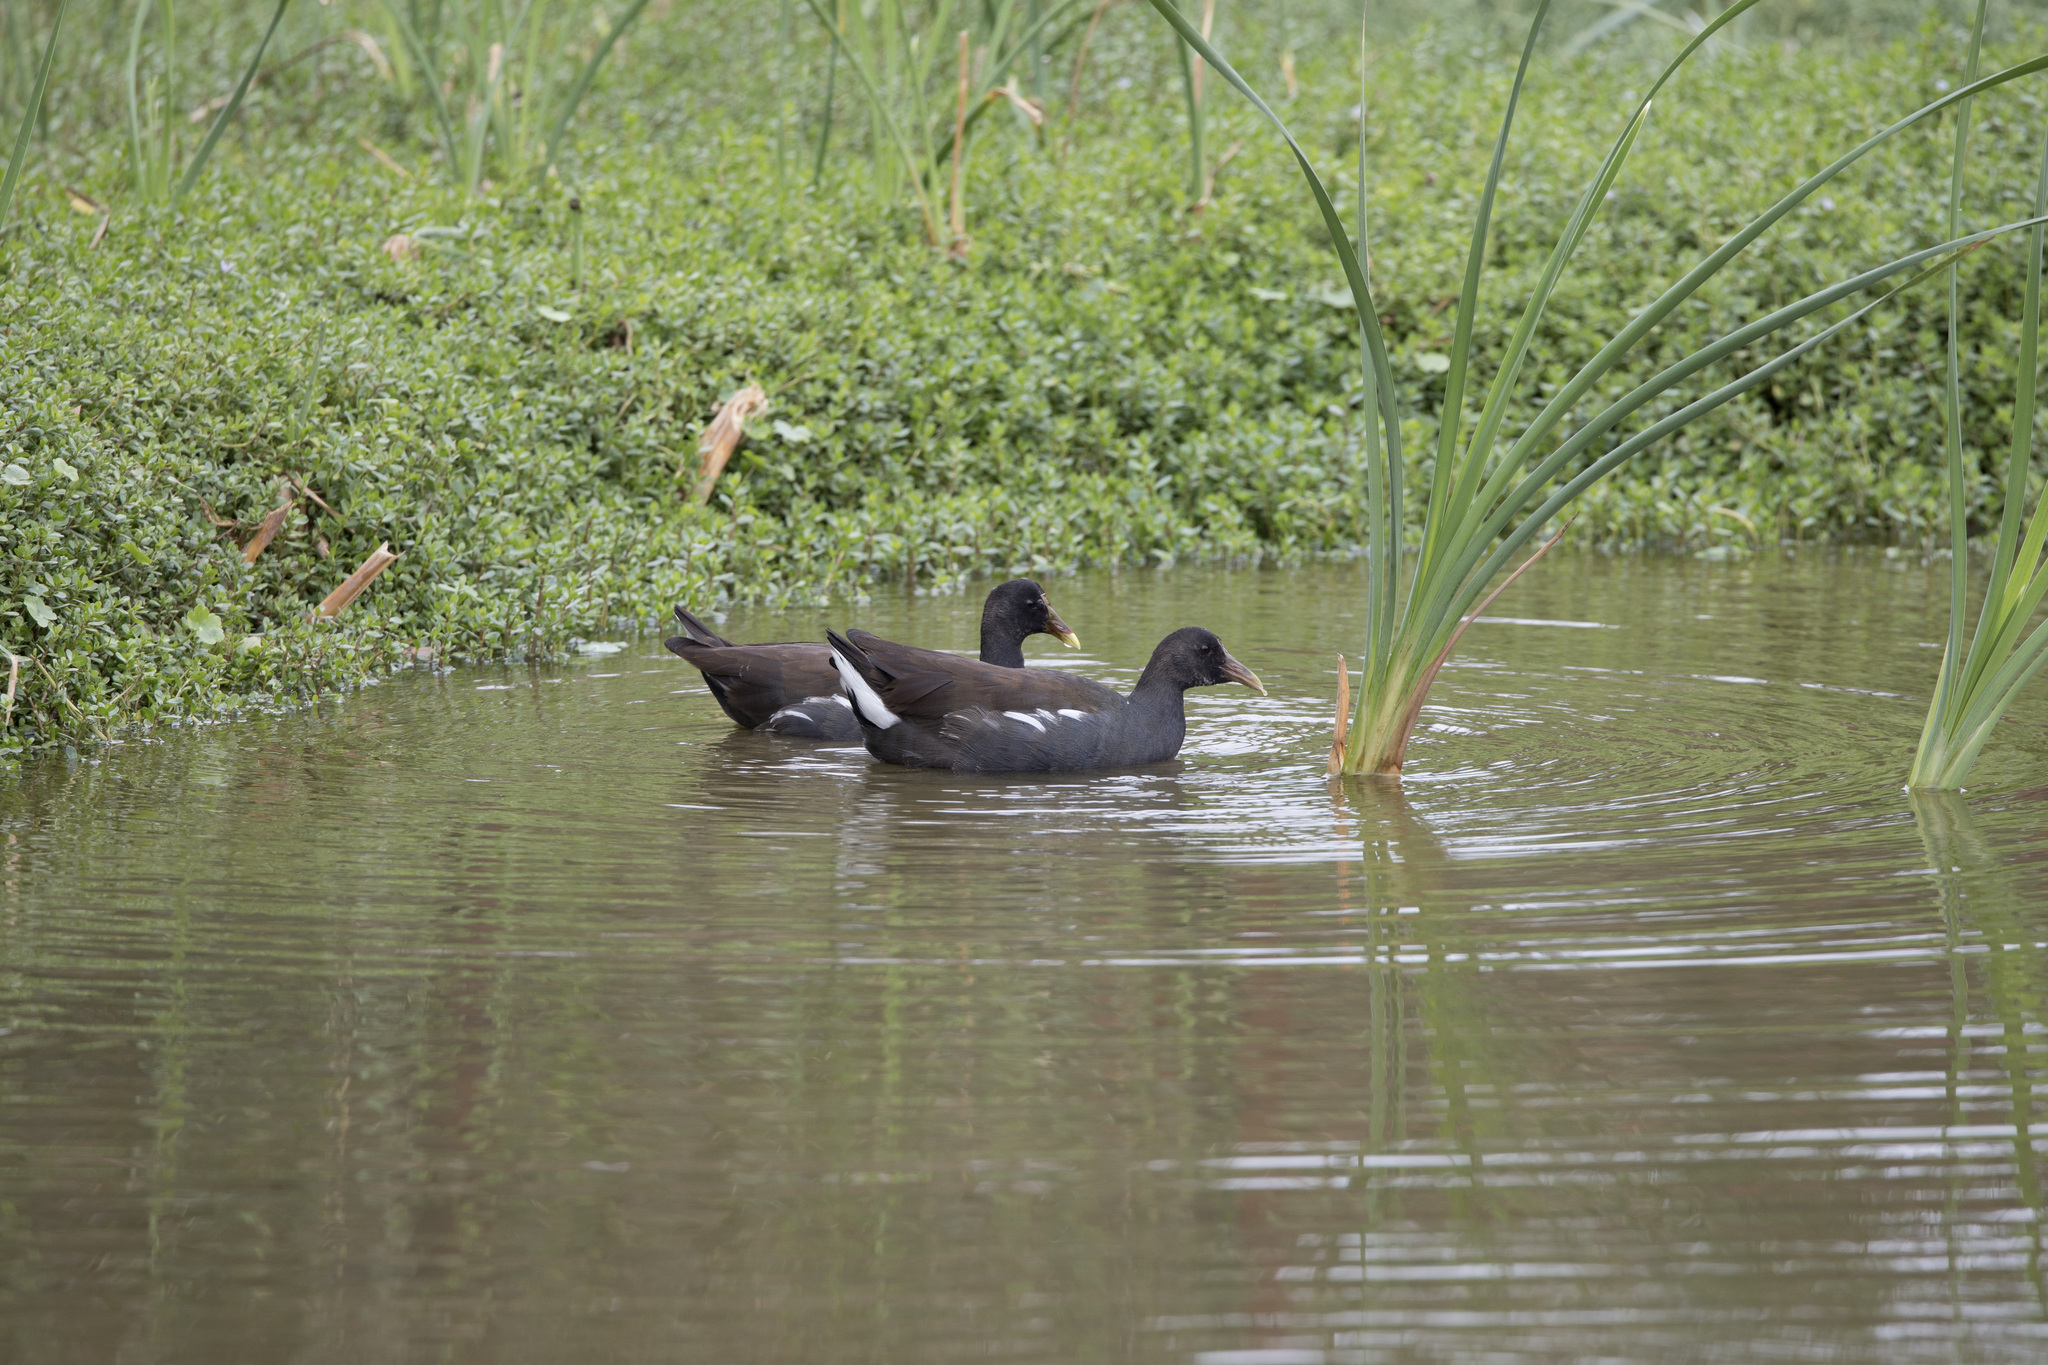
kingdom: Animalia
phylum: Chordata
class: Aves
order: Gruiformes
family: Rallidae
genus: Gallinula
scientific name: Gallinula chloropus
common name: Common moorhen
